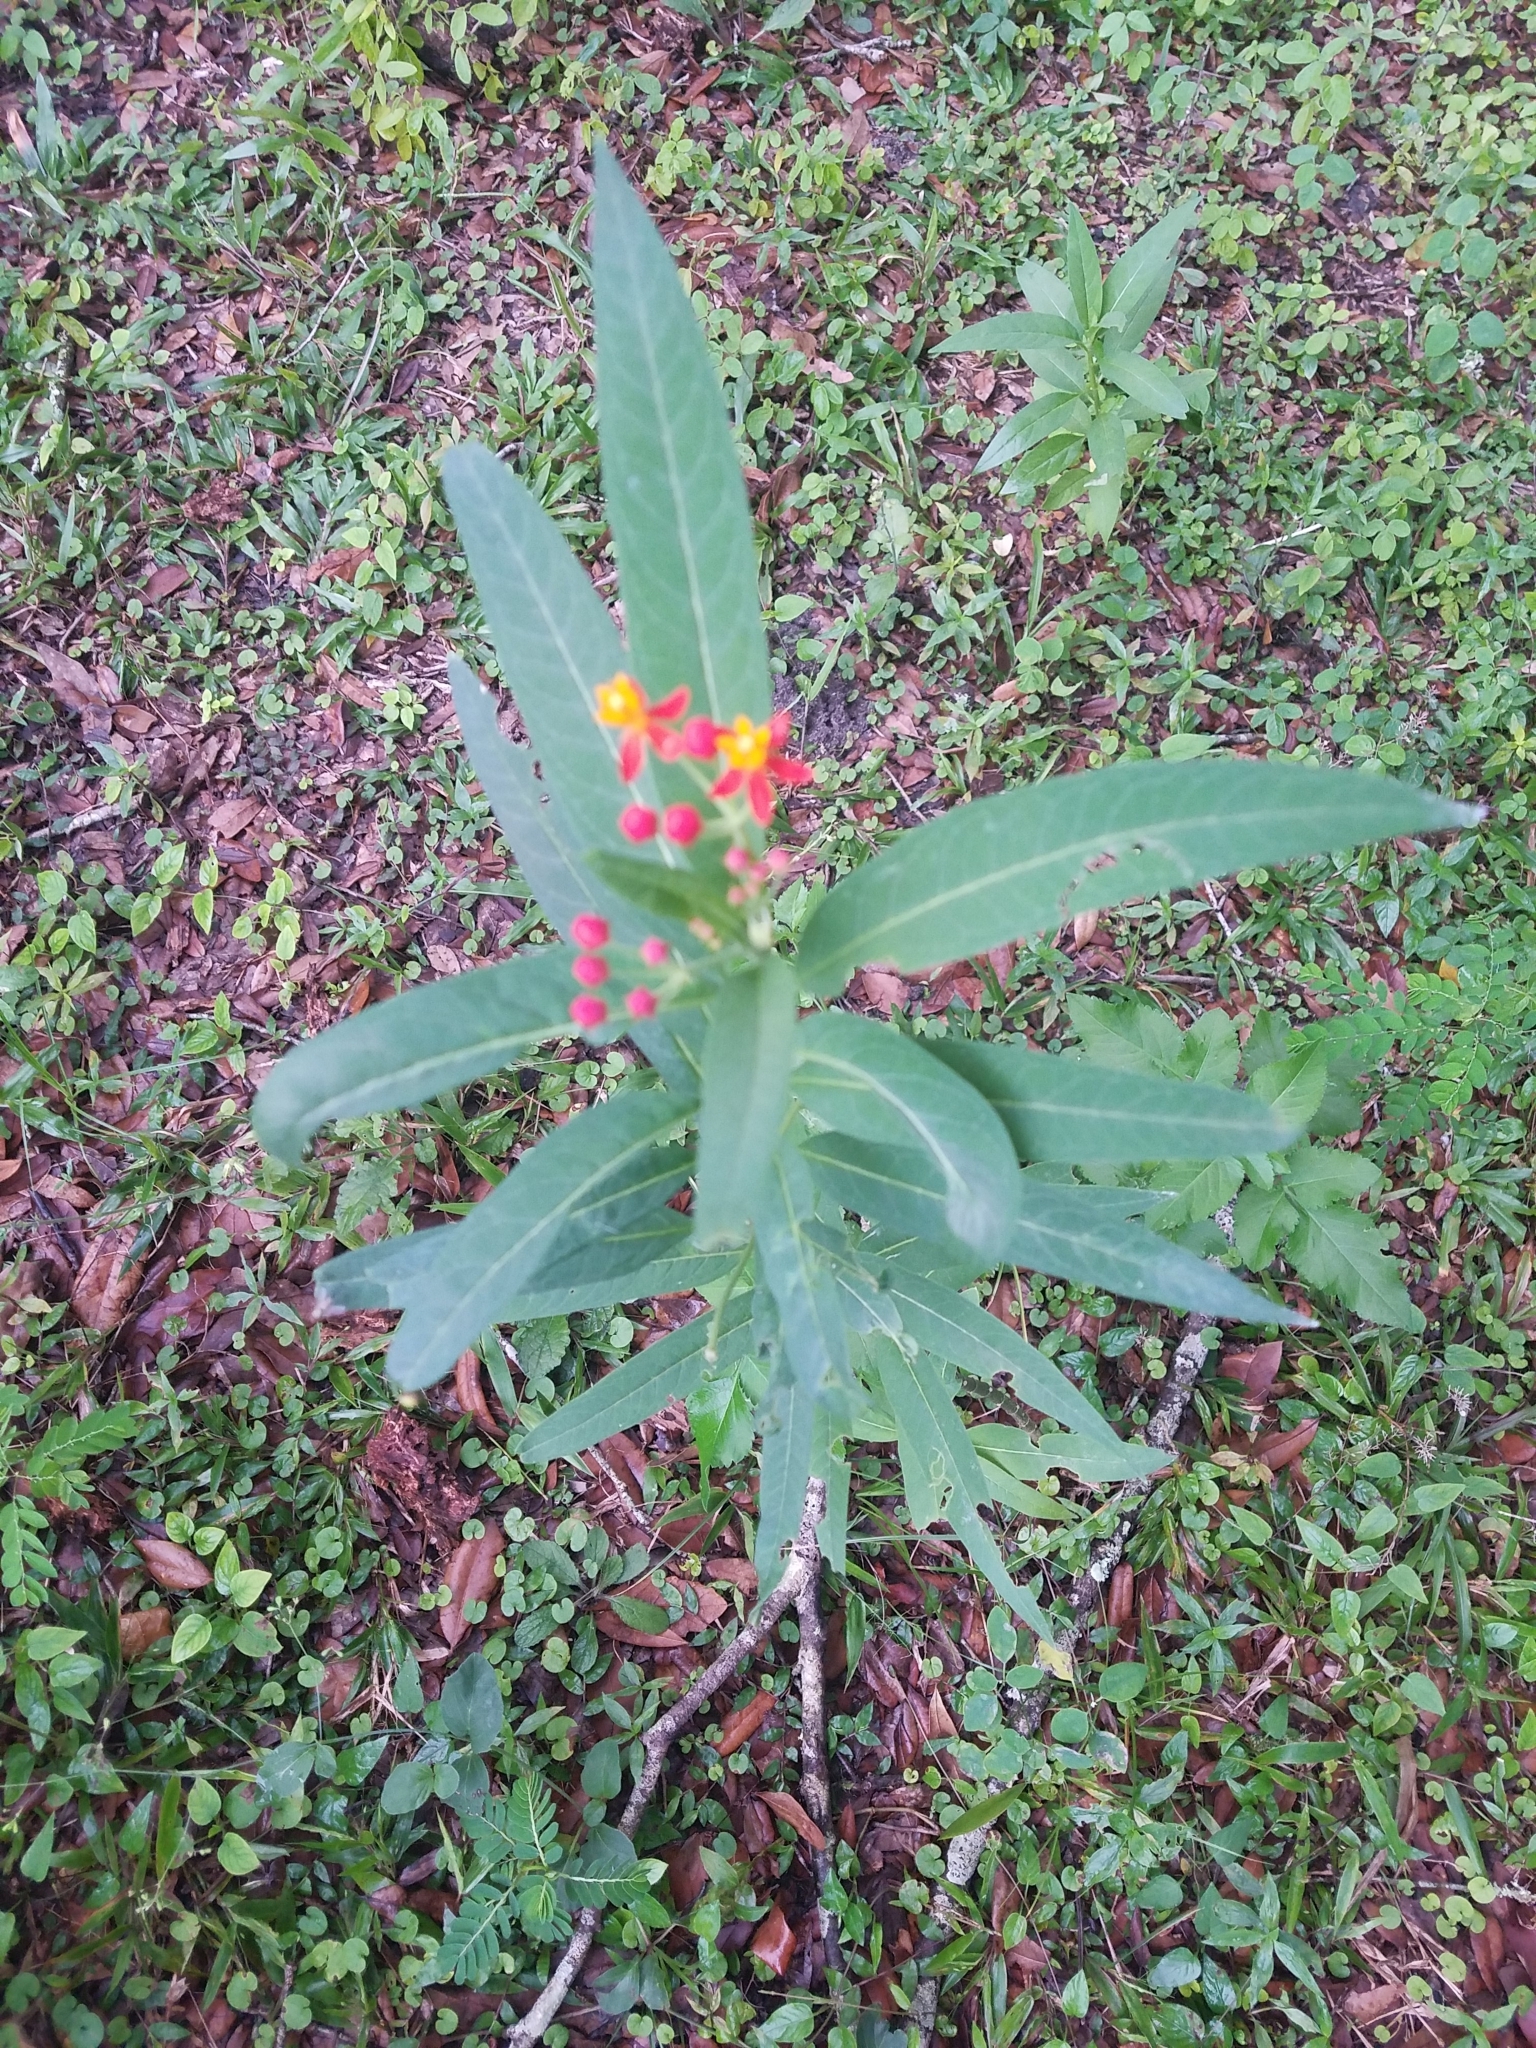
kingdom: Plantae
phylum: Tracheophyta
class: Magnoliopsida
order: Gentianales
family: Apocynaceae
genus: Asclepias
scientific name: Asclepias curassavica
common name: Bloodflower
